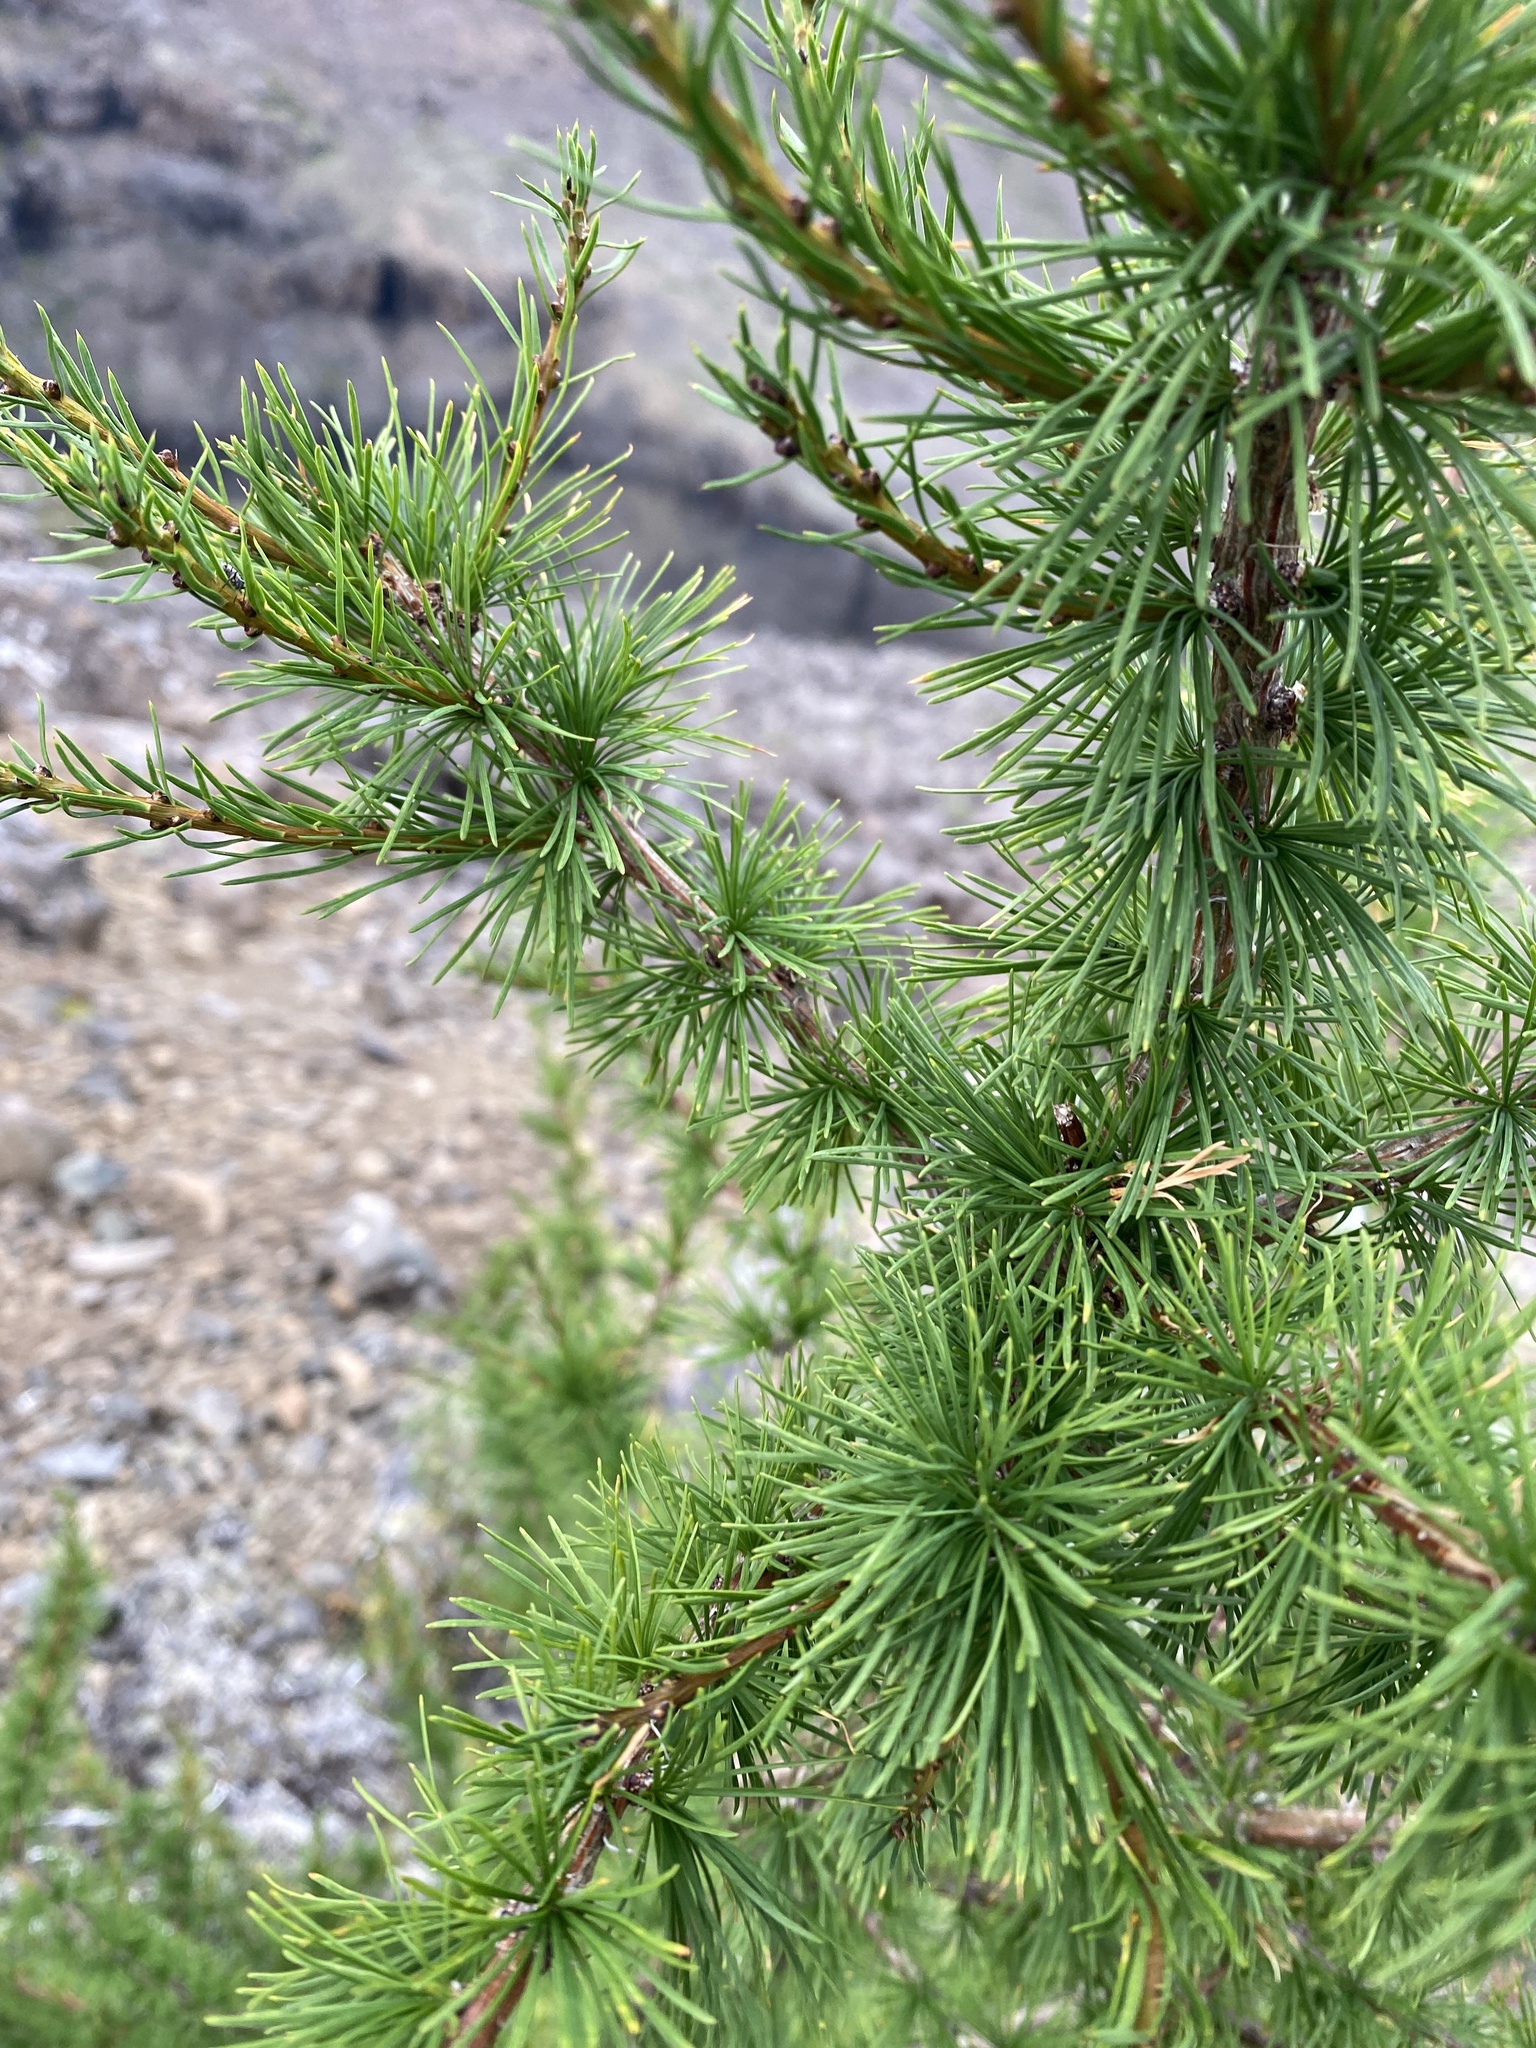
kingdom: Plantae
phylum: Tracheophyta
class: Pinopsida
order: Pinales
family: Pinaceae
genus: Larix
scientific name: Larix
